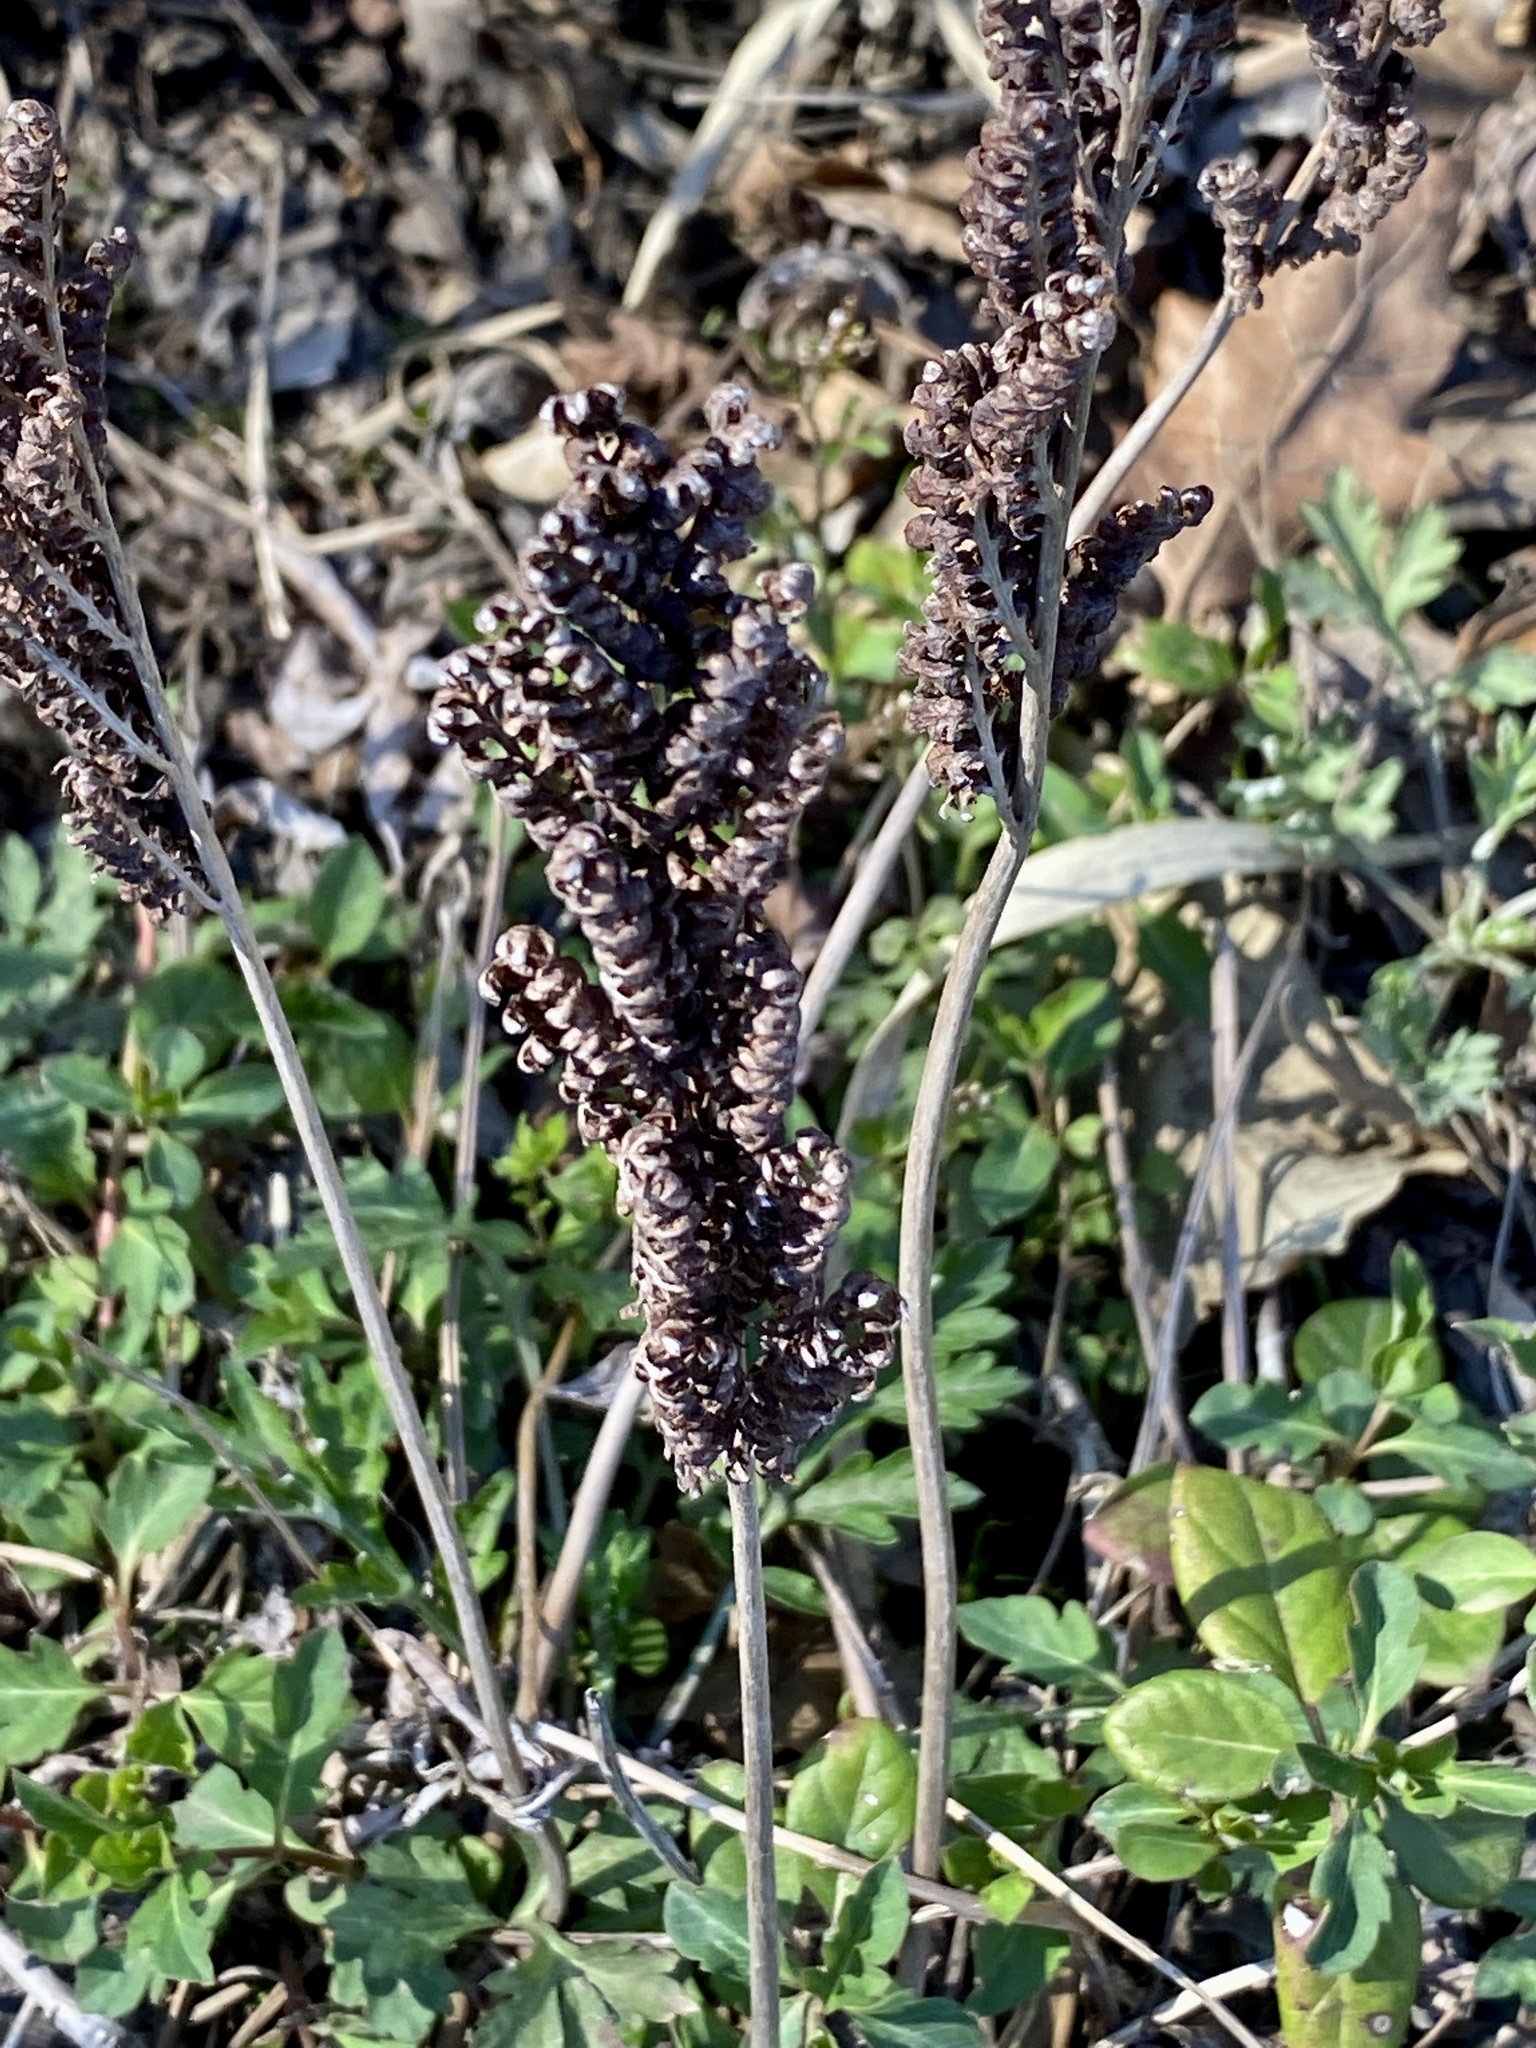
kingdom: Plantae
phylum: Tracheophyta
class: Polypodiopsida
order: Polypodiales
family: Onocleaceae
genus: Onoclea
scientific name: Onoclea sensibilis
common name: Sensitive fern
